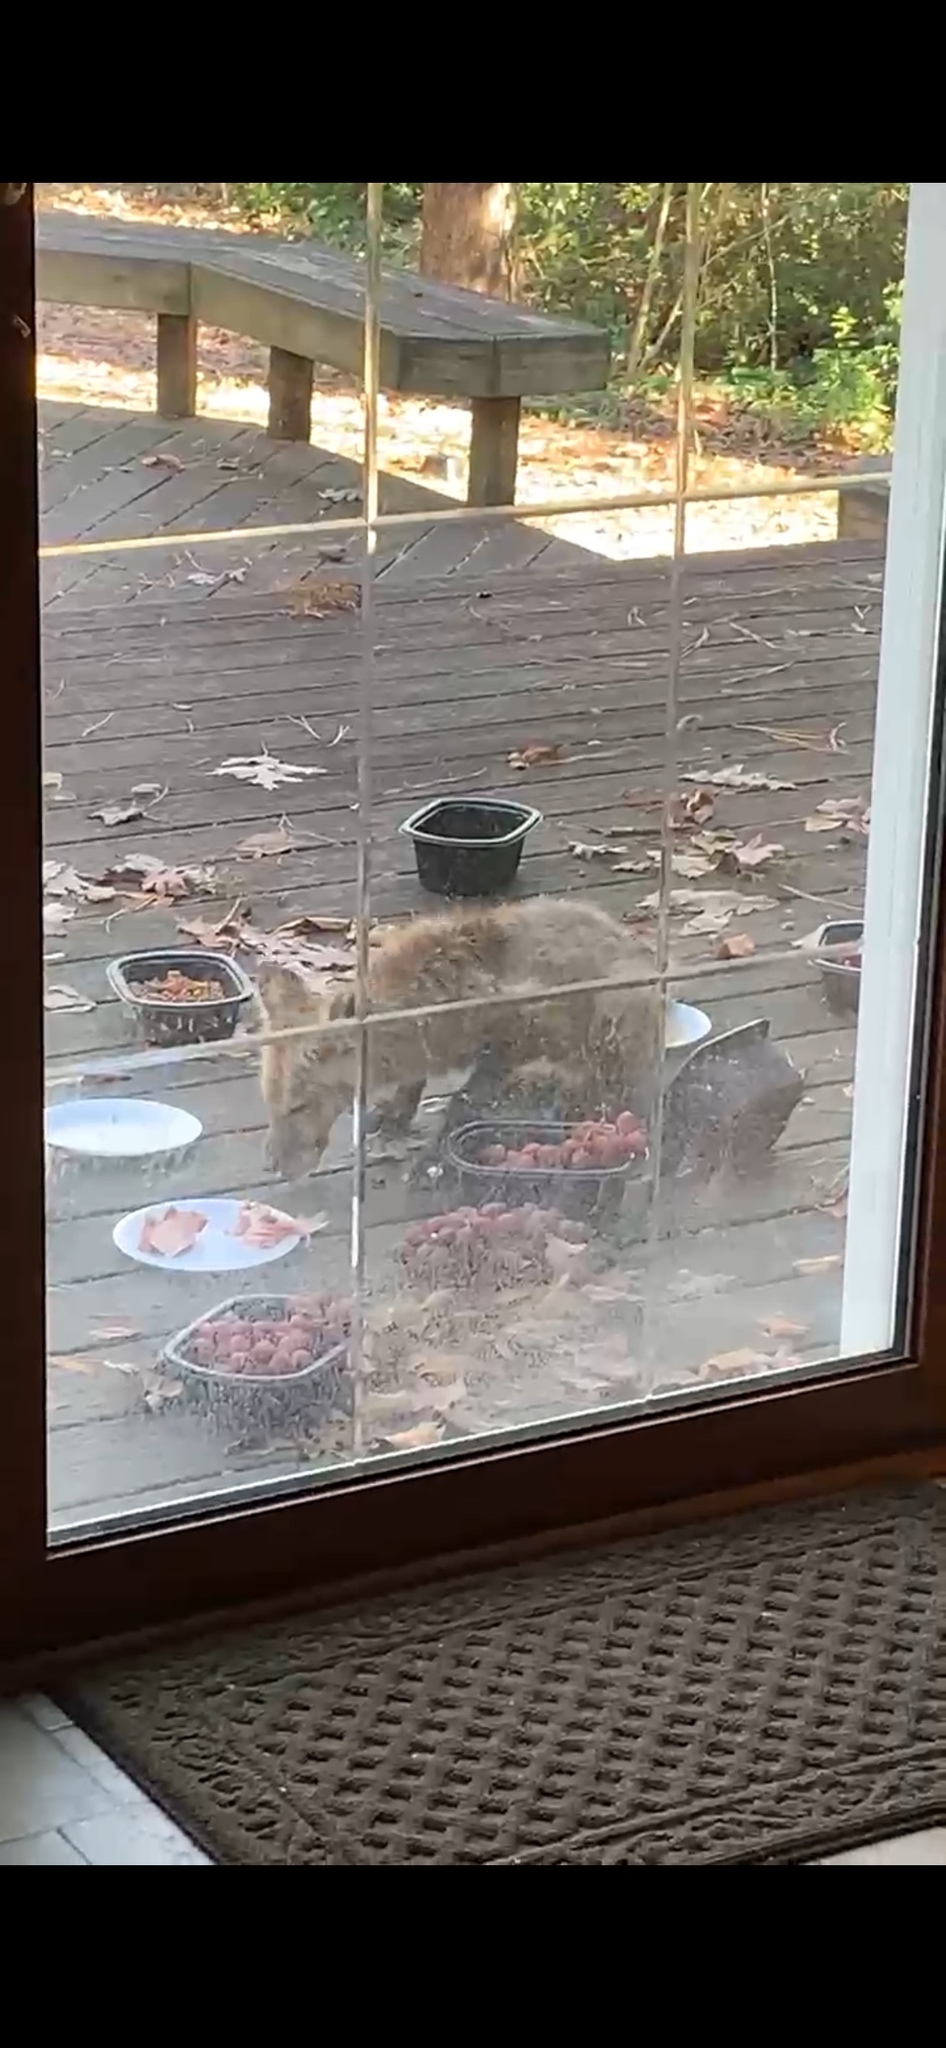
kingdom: Animalia
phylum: Chordata
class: Mammalia
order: Carnivora
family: Canidae
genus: Vulpes
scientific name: Vulpes vulpes
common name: Red fox
